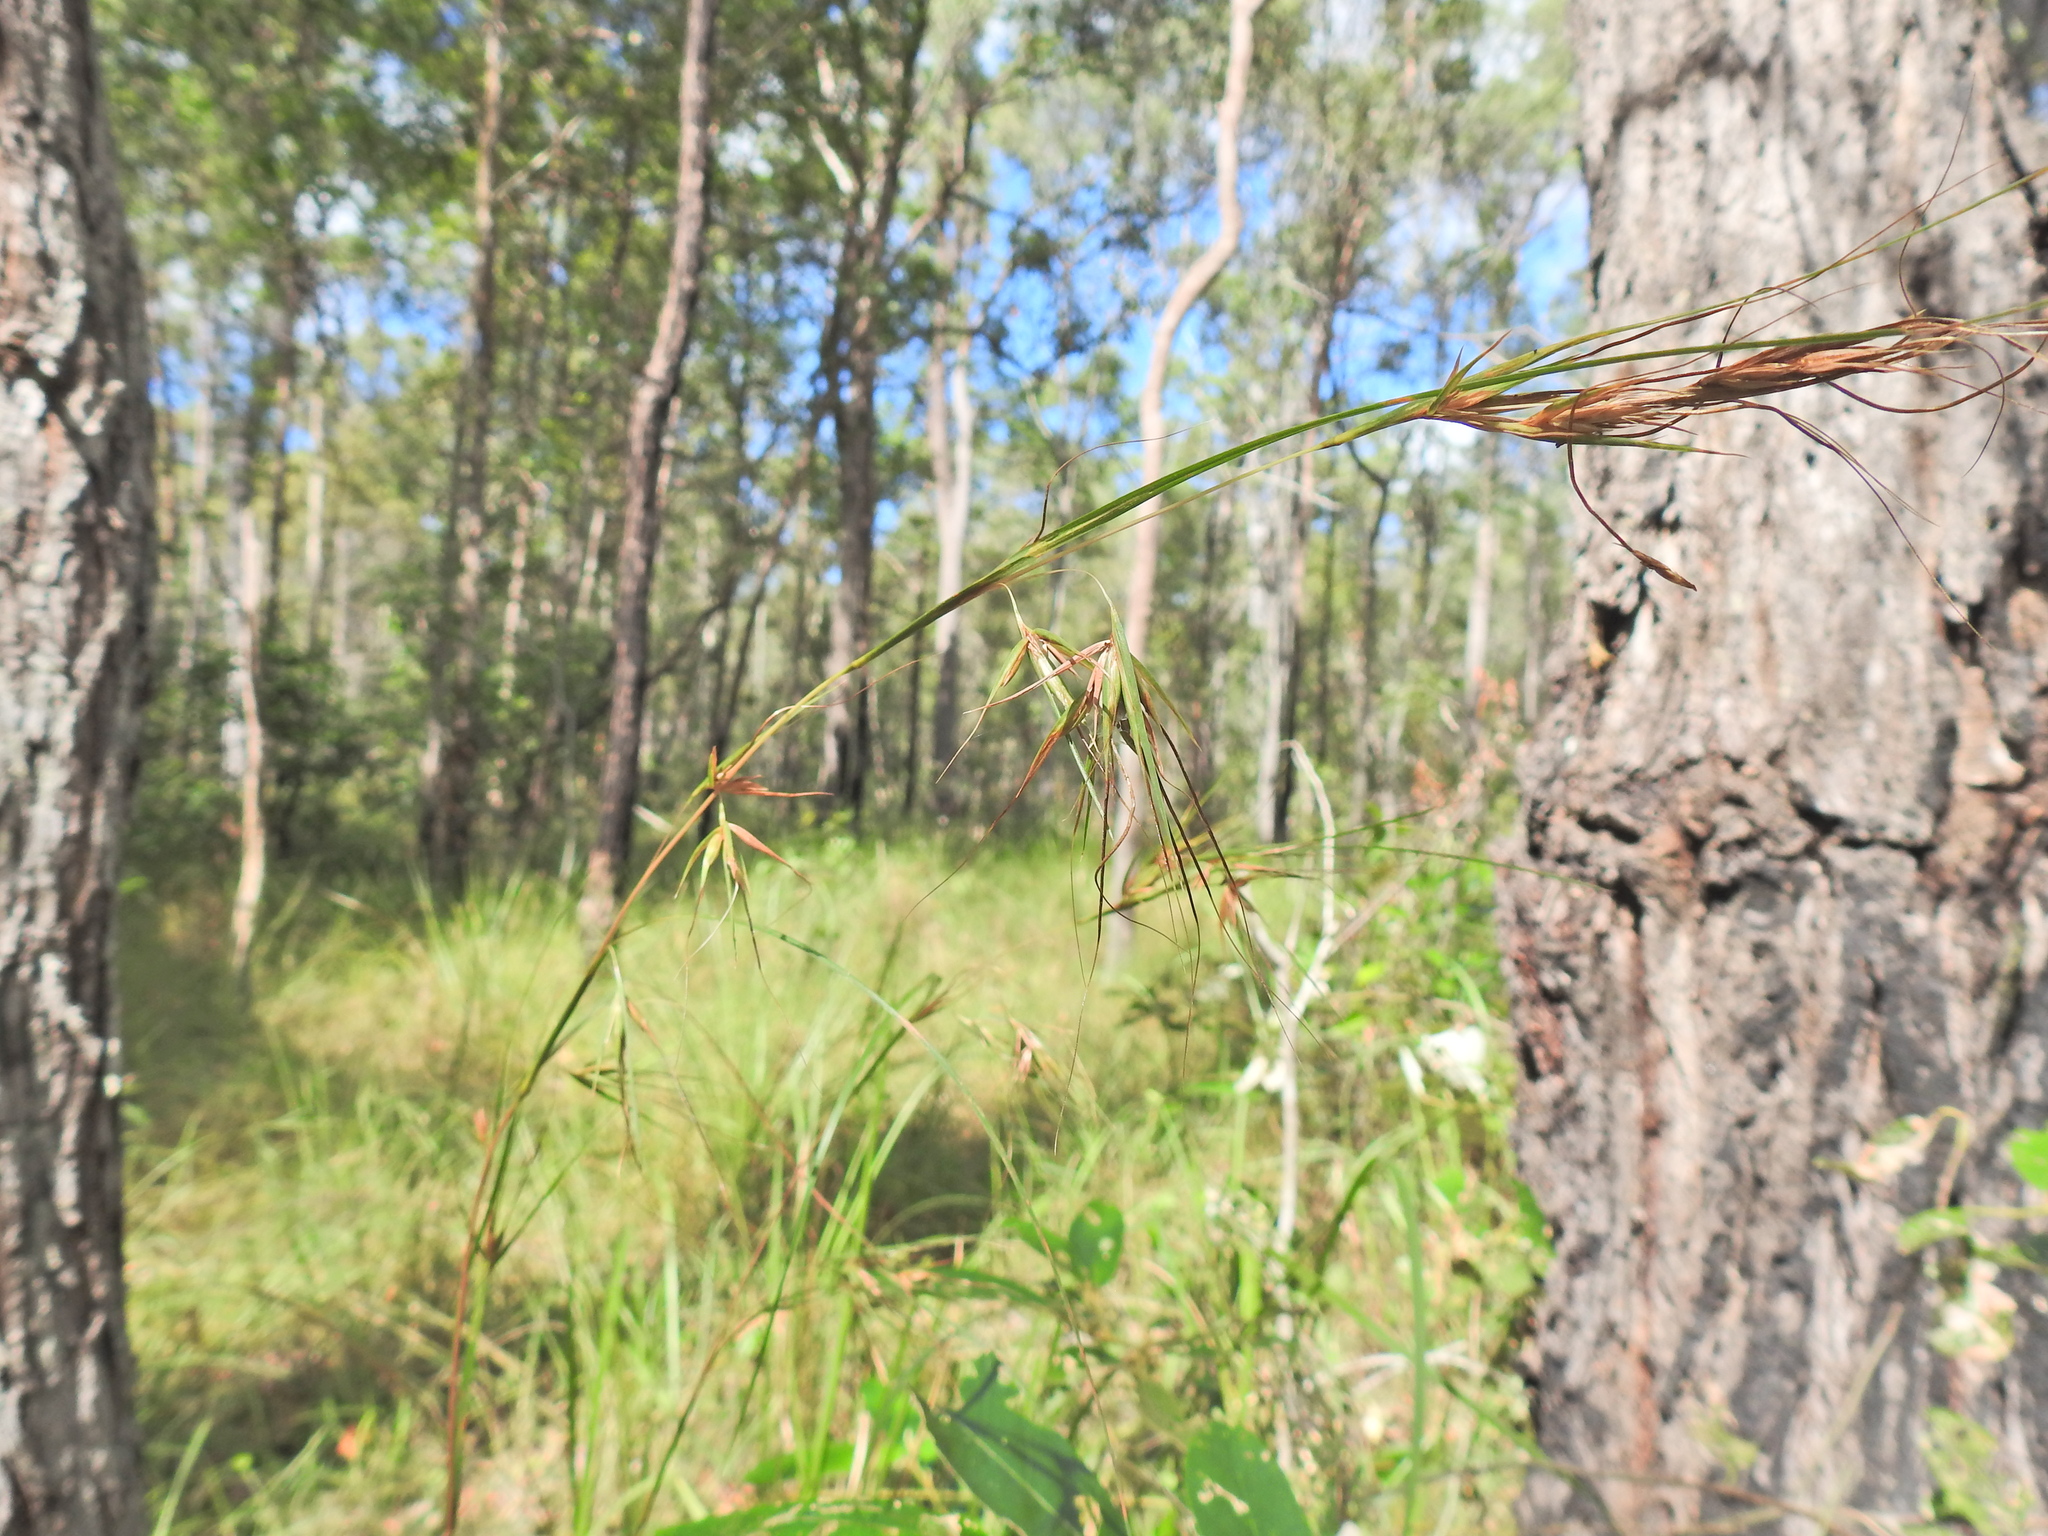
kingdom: Plantae
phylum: Tracheophyta
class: Liliopsida
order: Poales
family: Poaceae
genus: Themeda
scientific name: Themeda triandra
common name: Kangaroo grass
